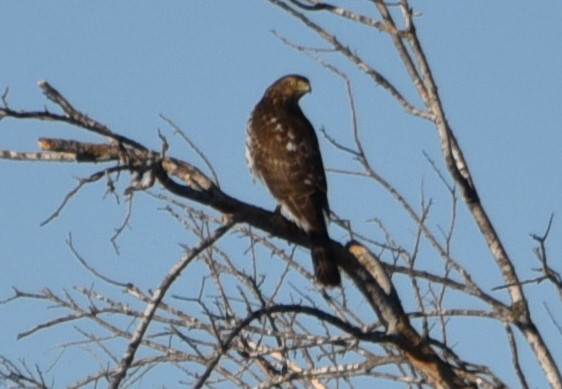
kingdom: Animalia
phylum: Chordata
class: Aves
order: Accipitriformes
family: Accipitridae
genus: Accipiter
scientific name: Accipiter cooperii
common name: Cooper's hawk
